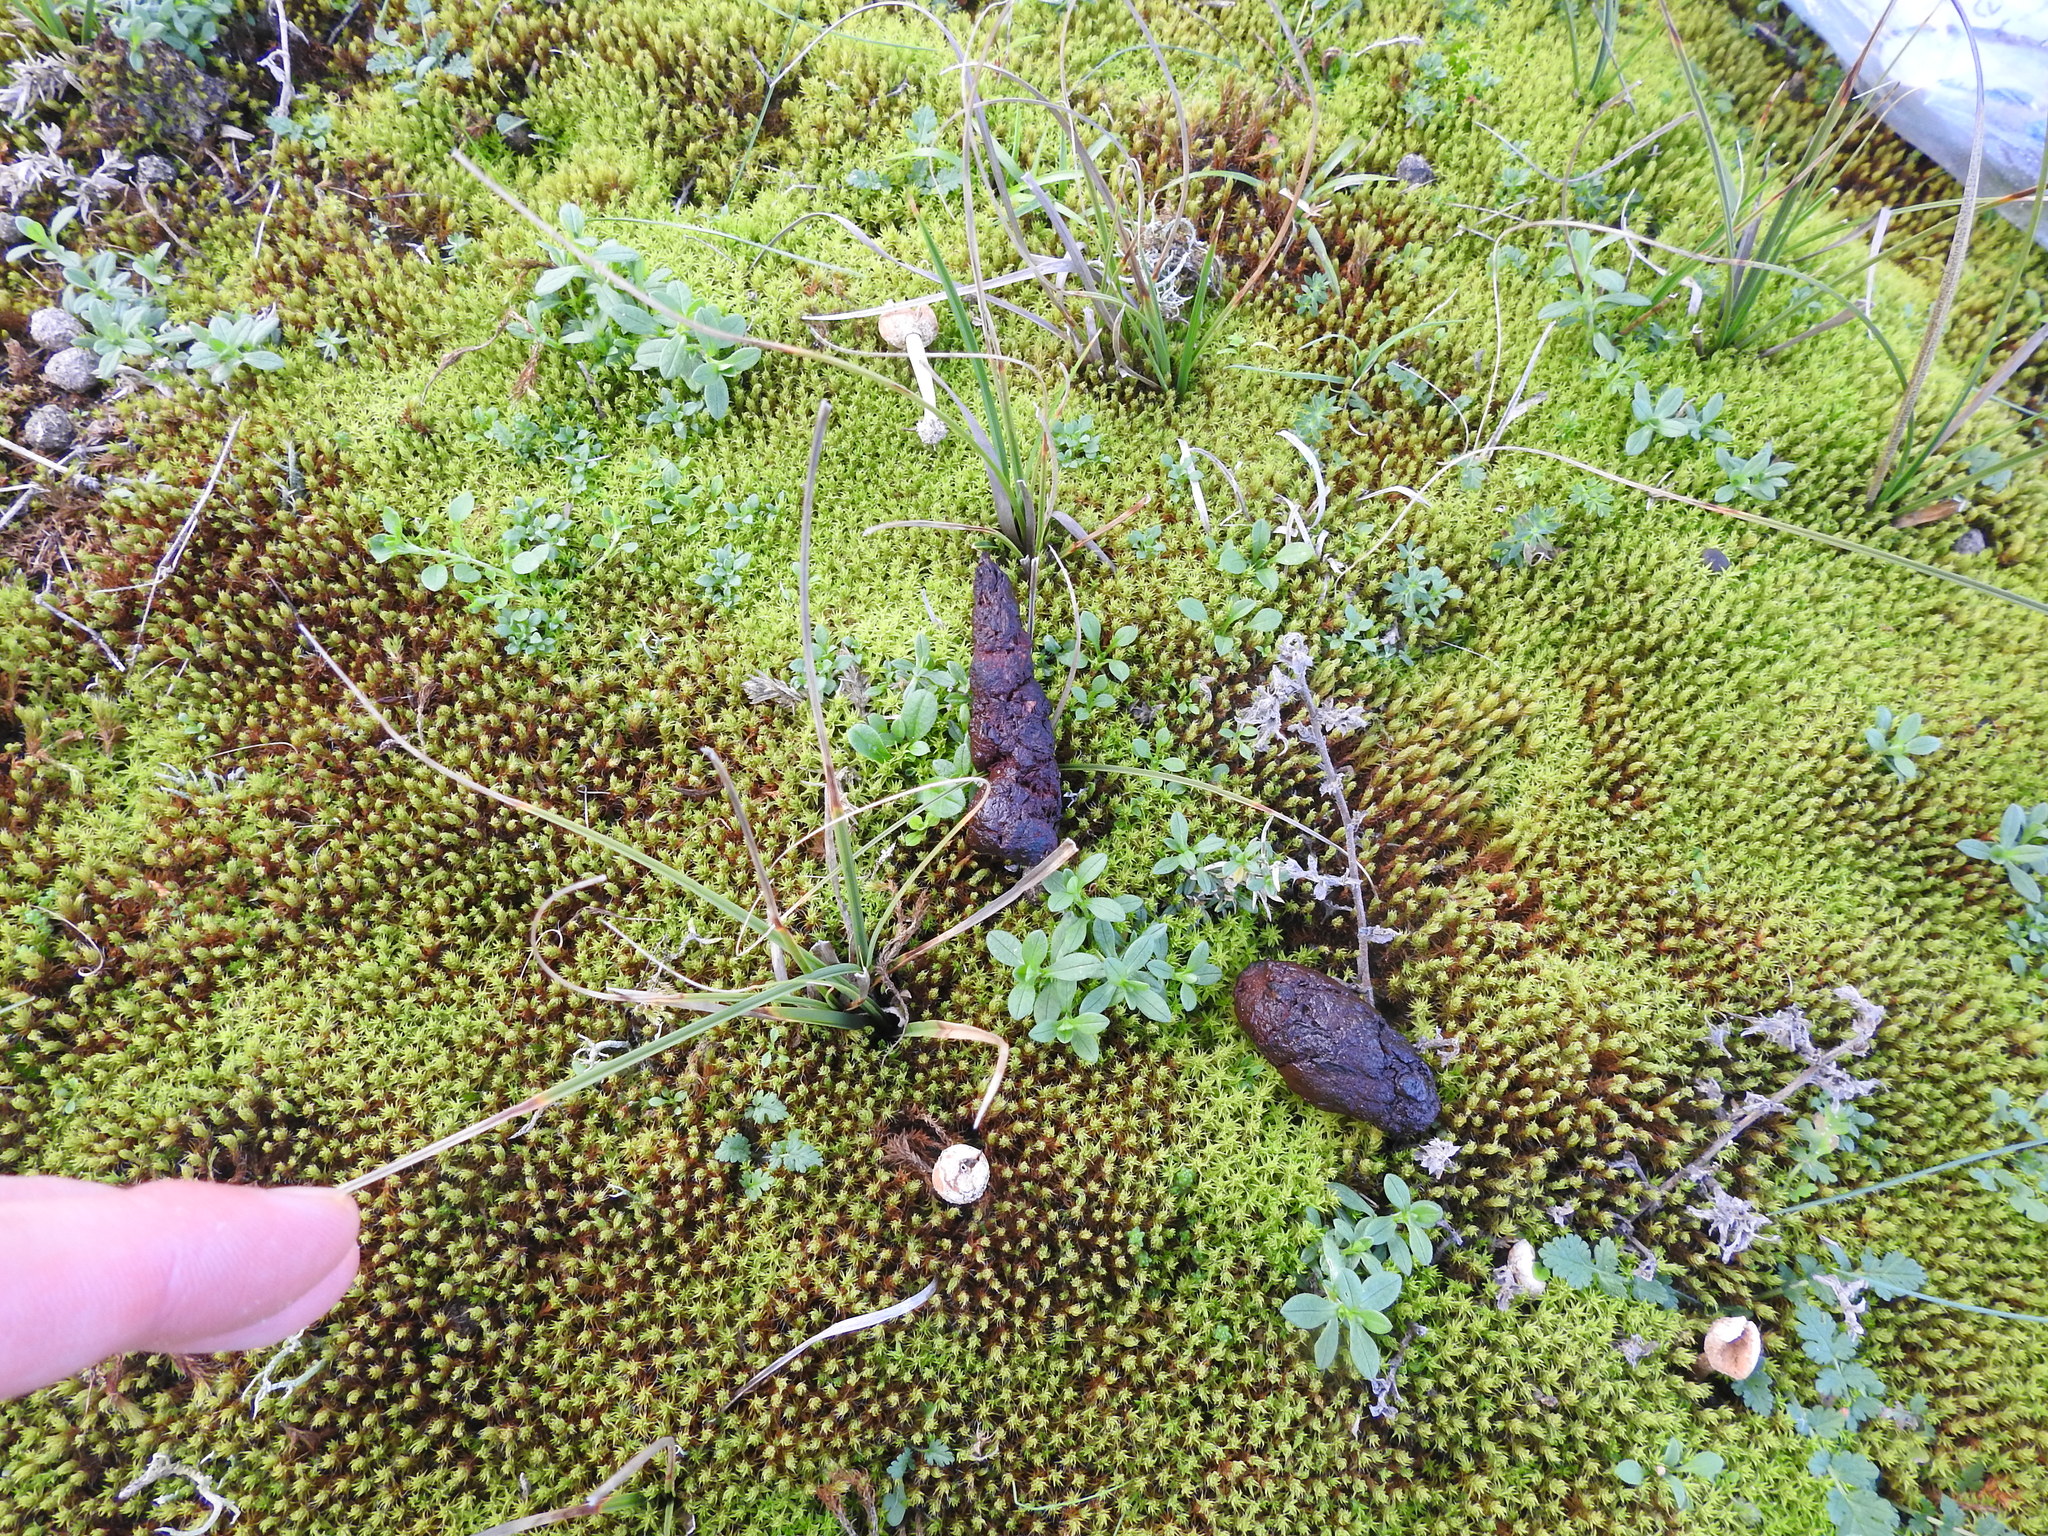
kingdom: Animalia
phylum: Chordata
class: Mammalia
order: Carnivora
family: Canidae
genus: Vulpes
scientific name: Vulpes vulpes
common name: Red fox
